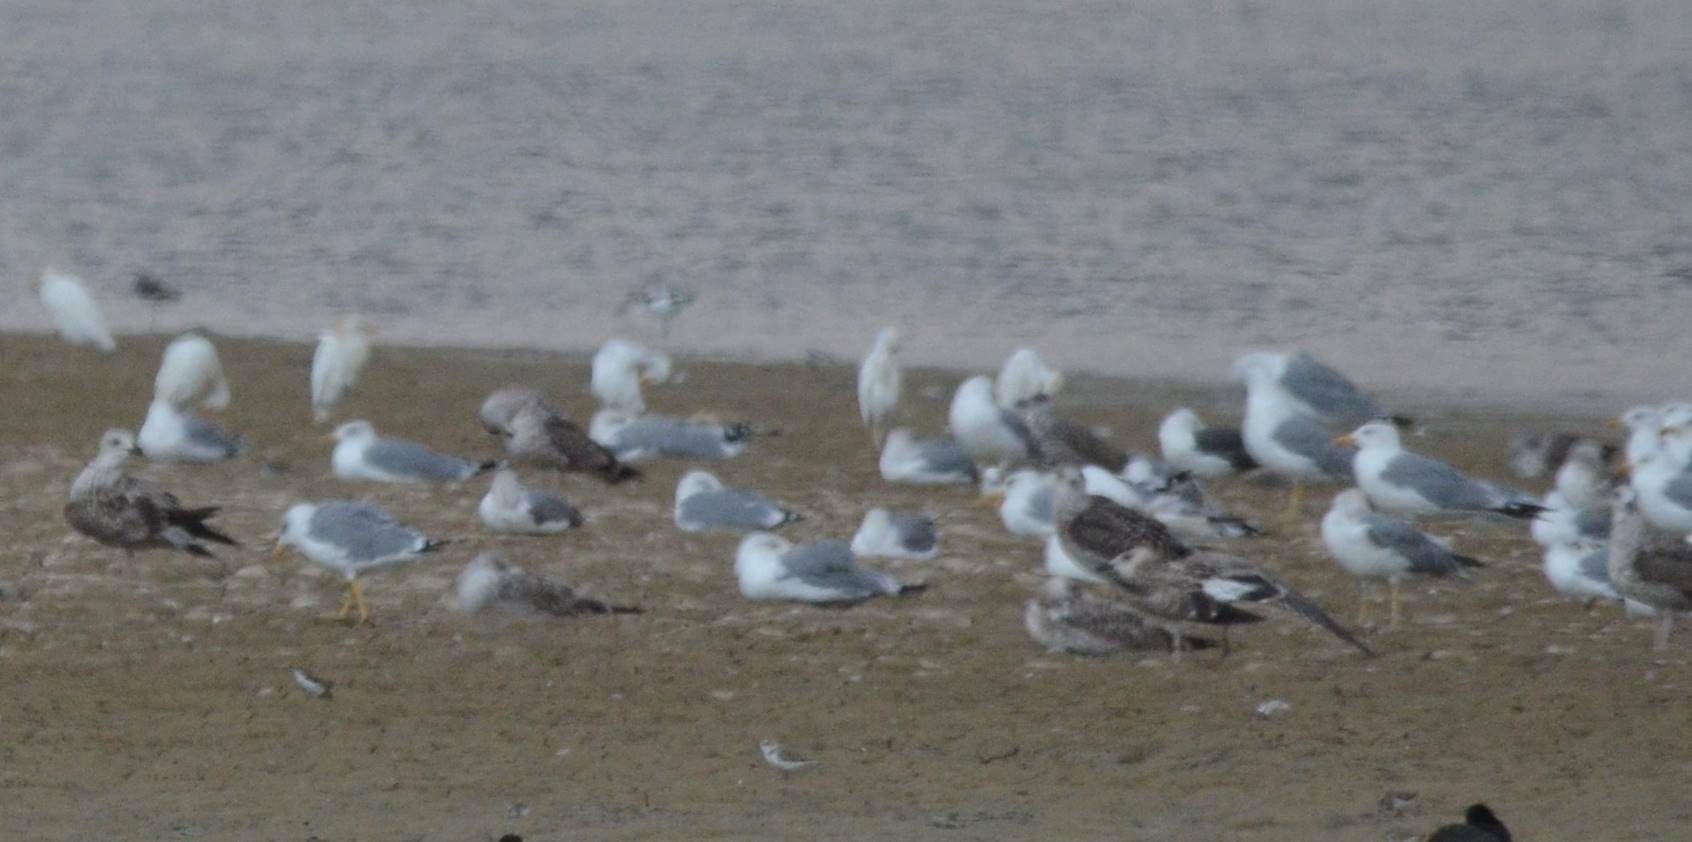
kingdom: Animalia
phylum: Chordata
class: Aves
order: Charadriiformes
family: Laridae
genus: Larus
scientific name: Larus michahellis
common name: Yellow-legged gull
